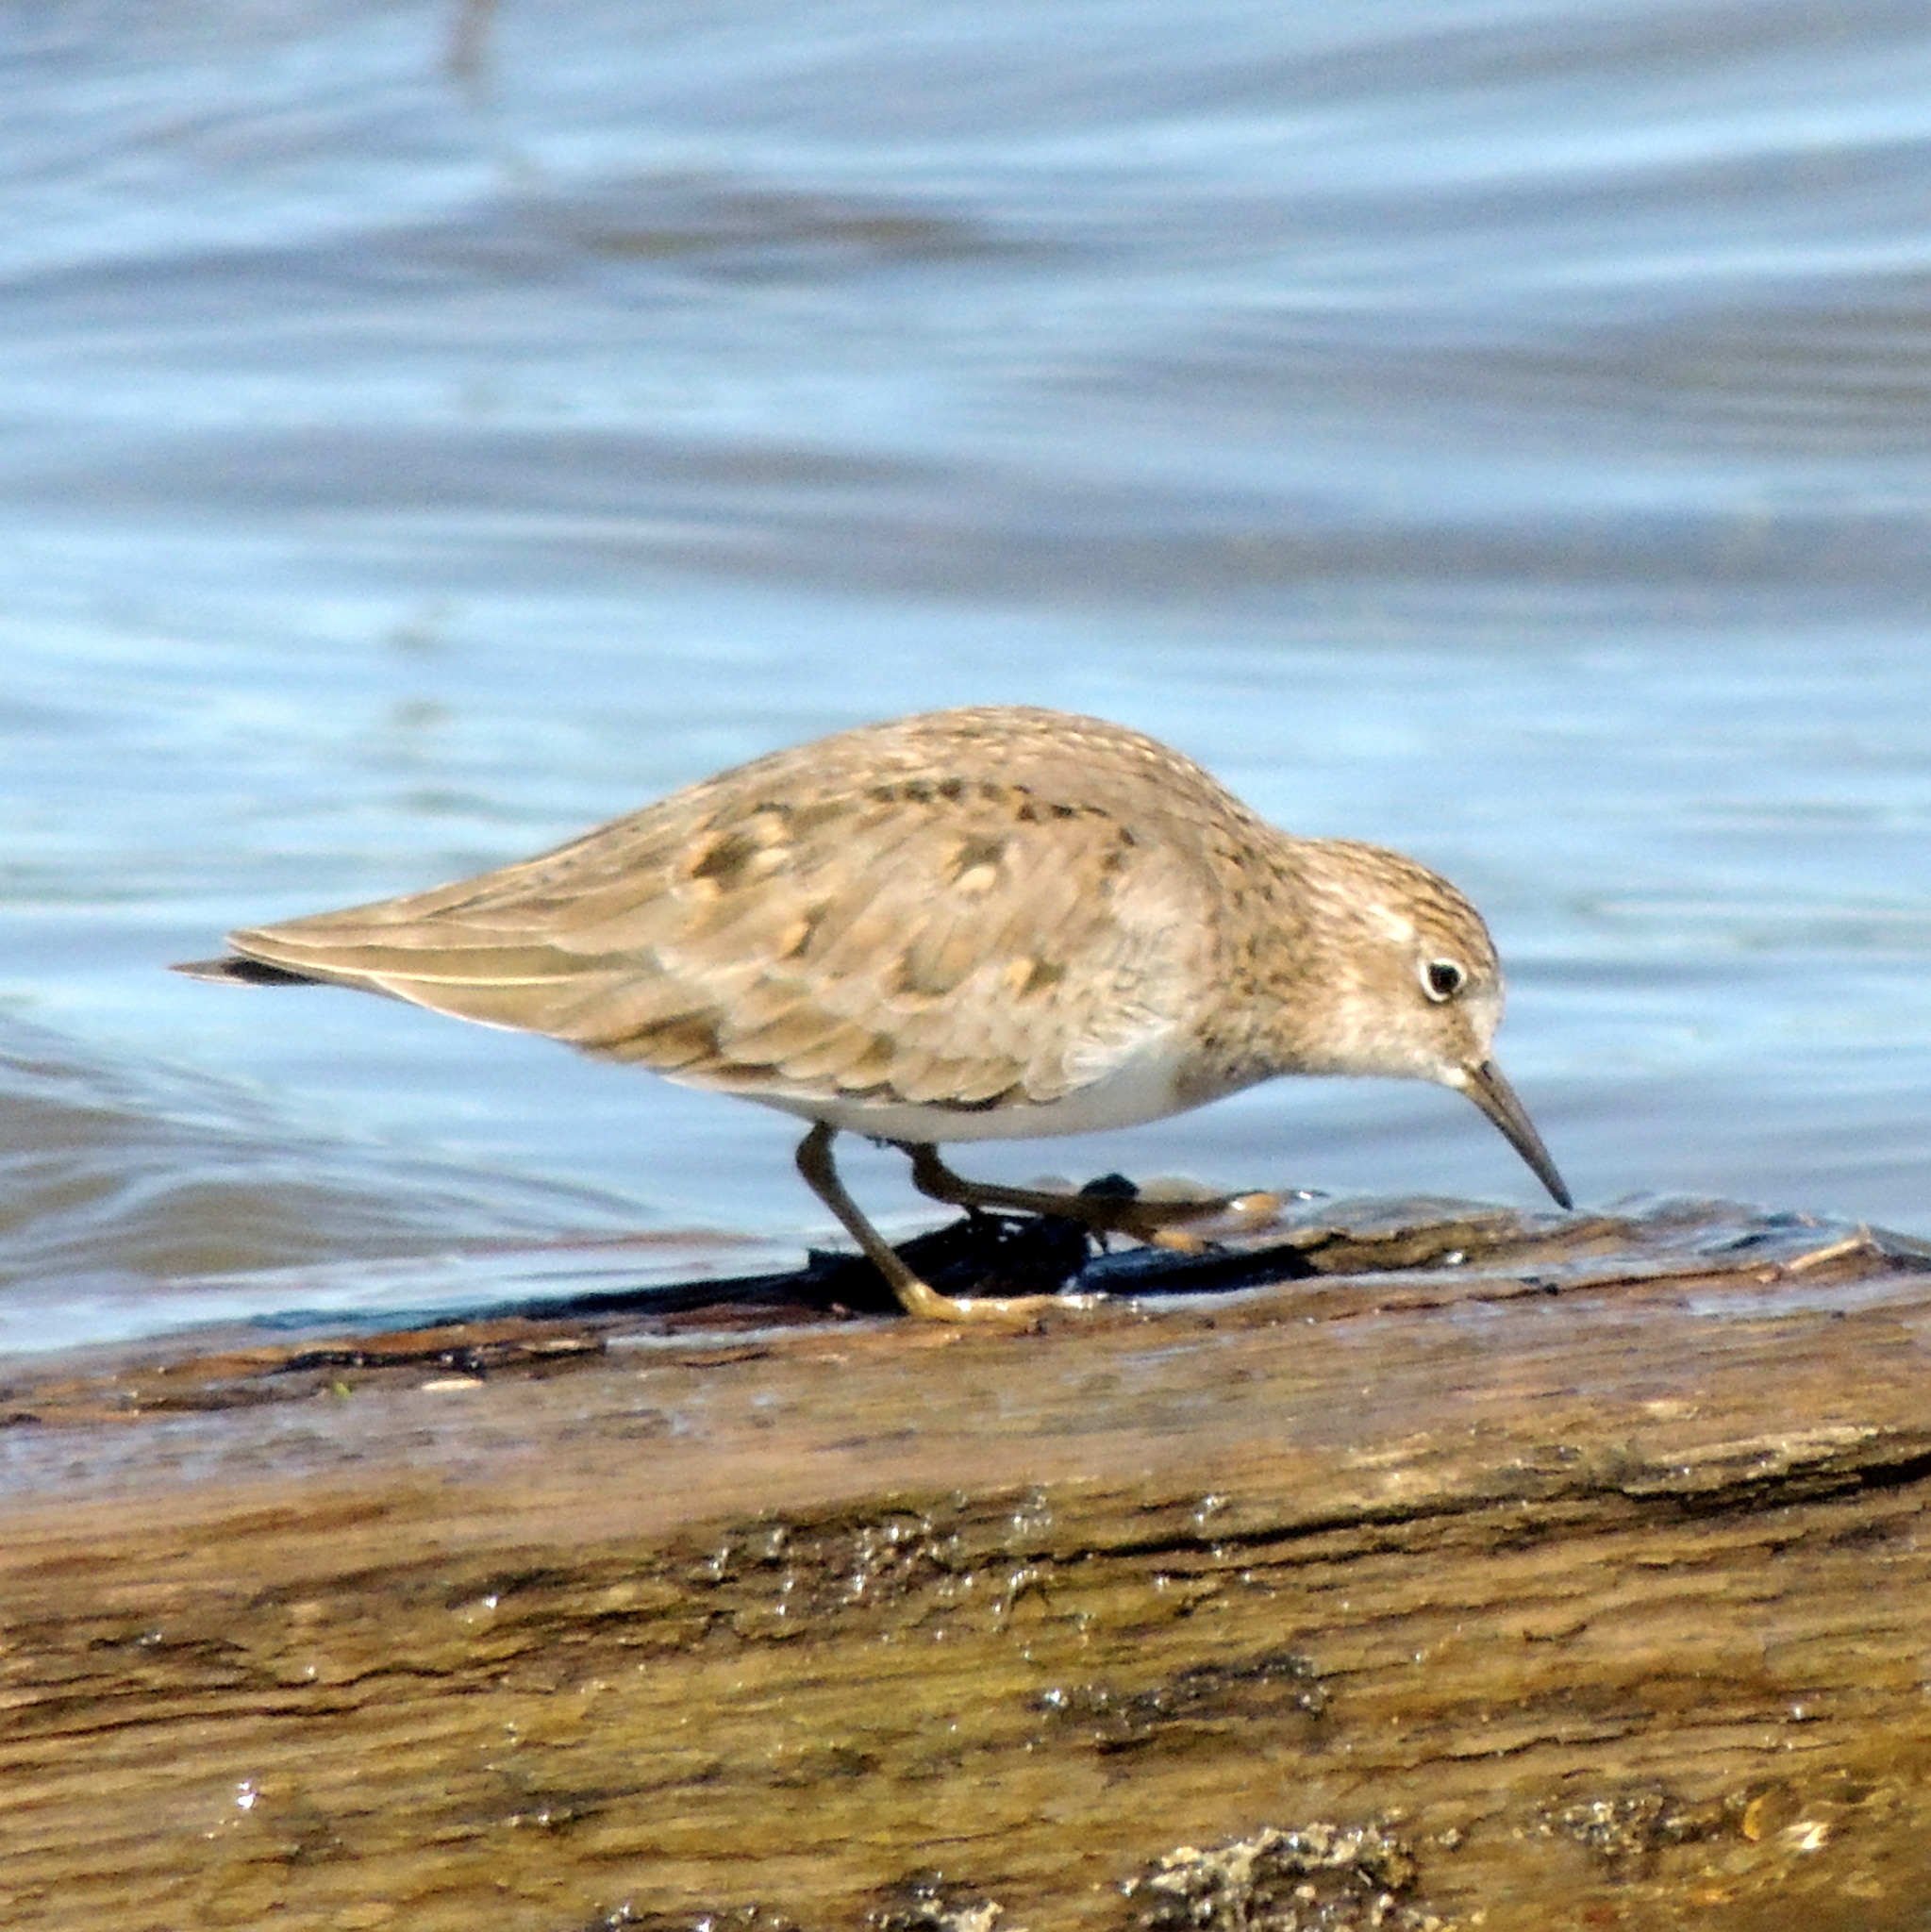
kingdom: Animalia
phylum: Chordata
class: Aves
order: Charadriiformes
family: Scolopacidae
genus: Calidris
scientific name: Calidris temminckii
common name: Temminck's stint
